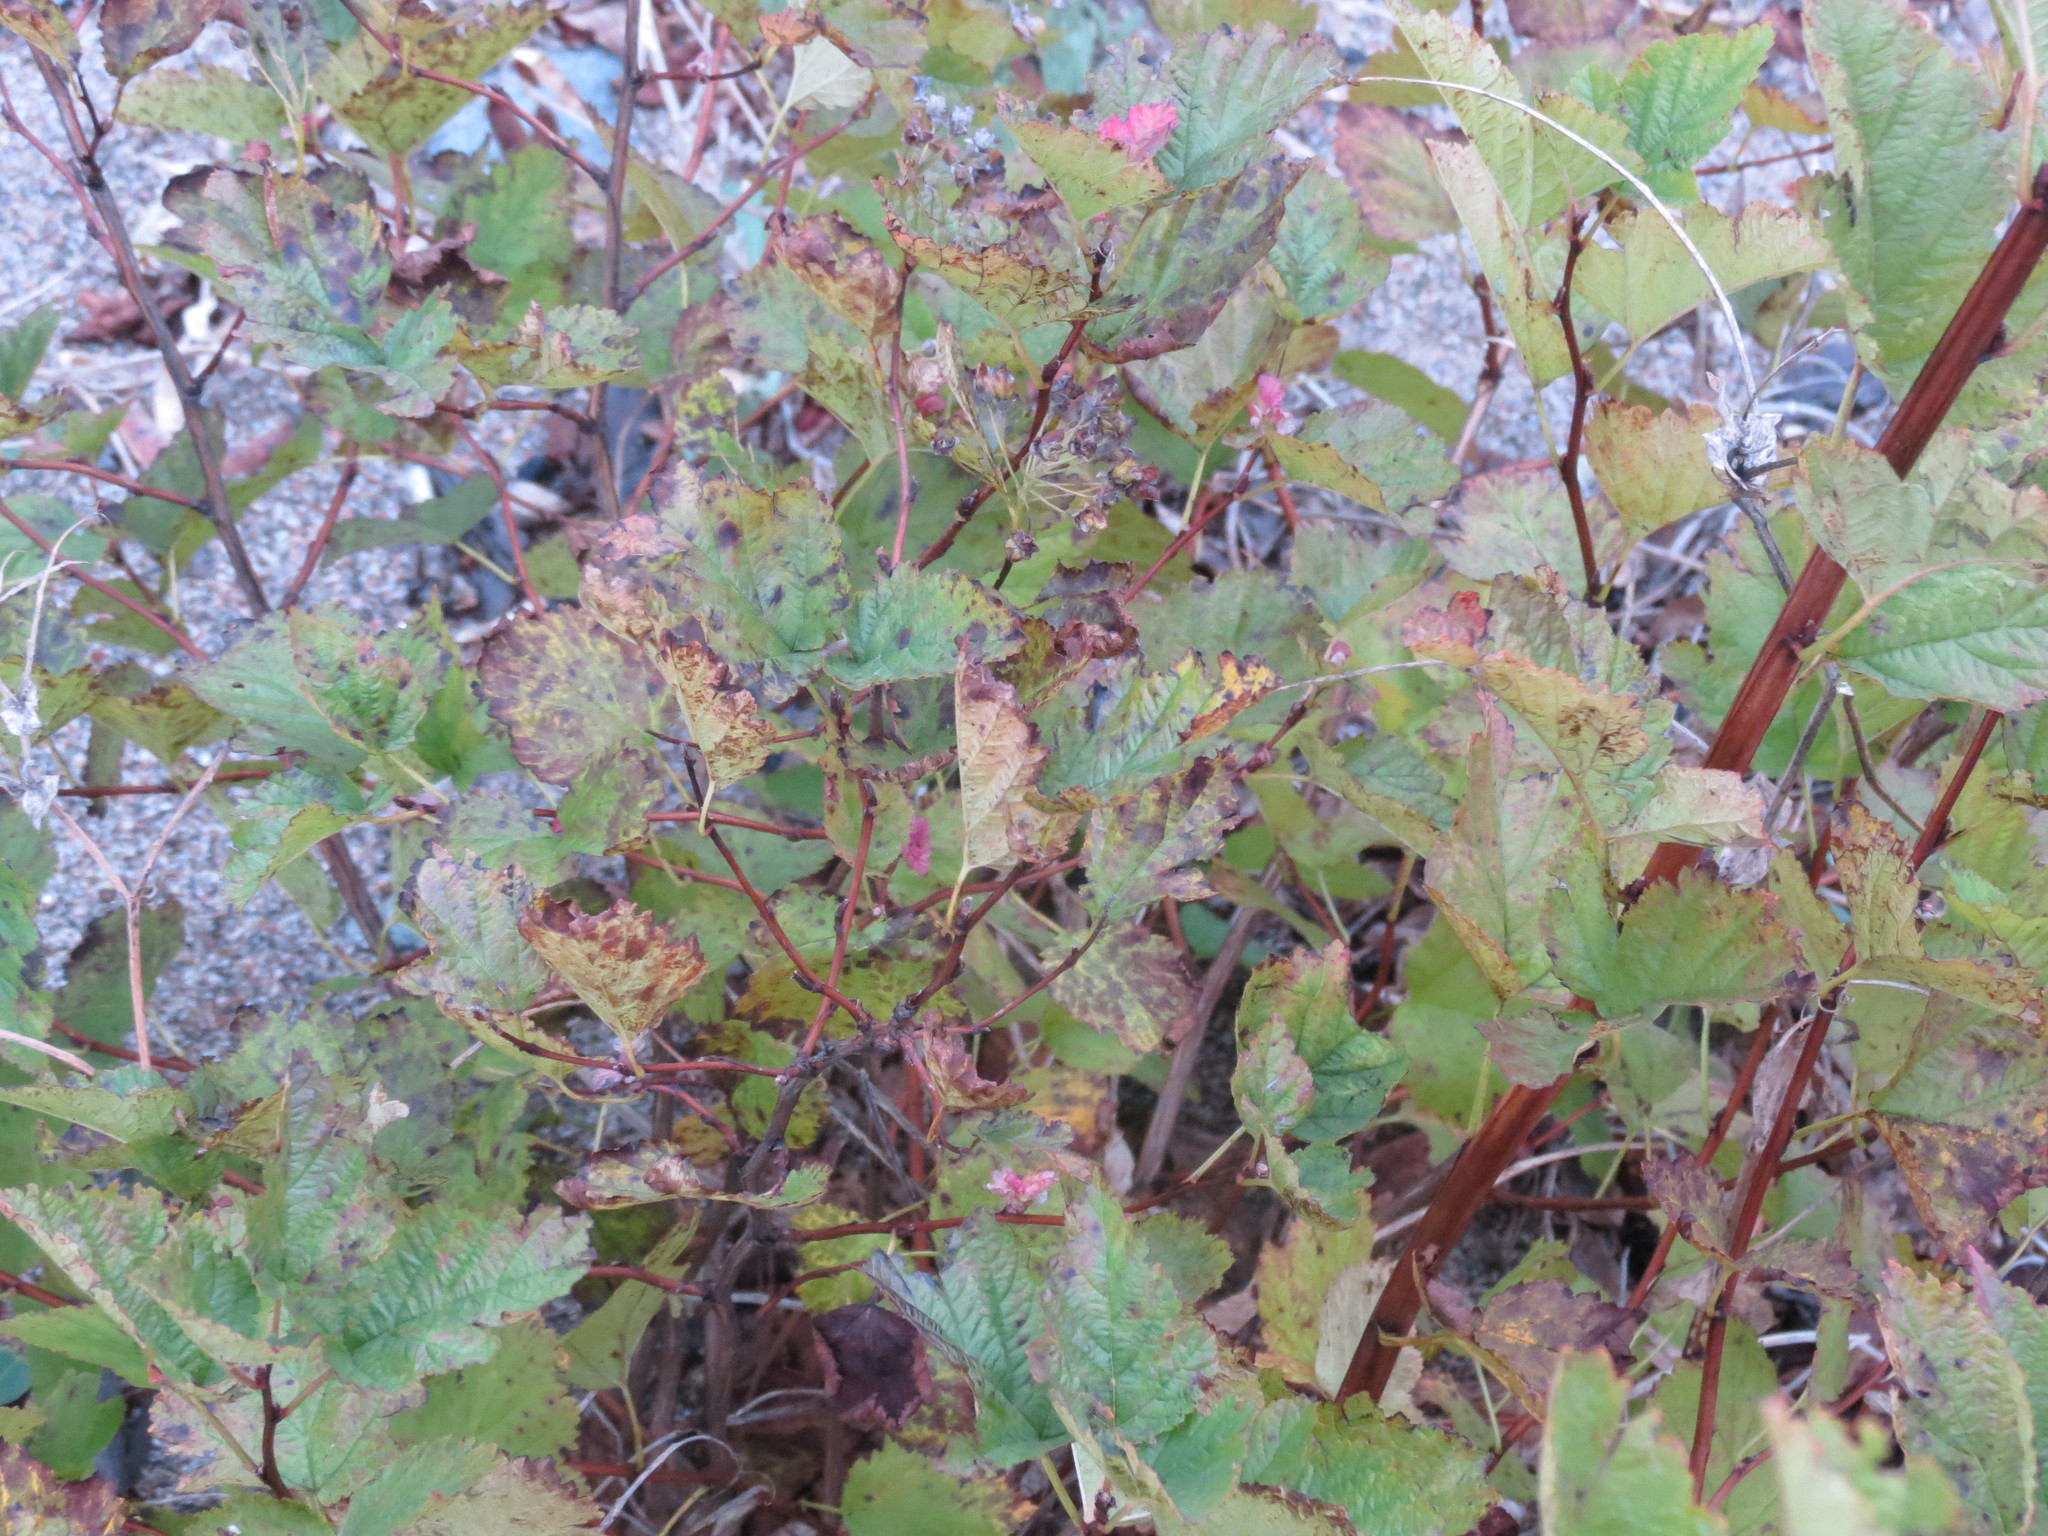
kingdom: Plantae
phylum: Tracheophyta
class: Magnoliopsida
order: Rosales
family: Rosaceae
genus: Physocarpus
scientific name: Physocarpus opulifolius
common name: Ninebark
